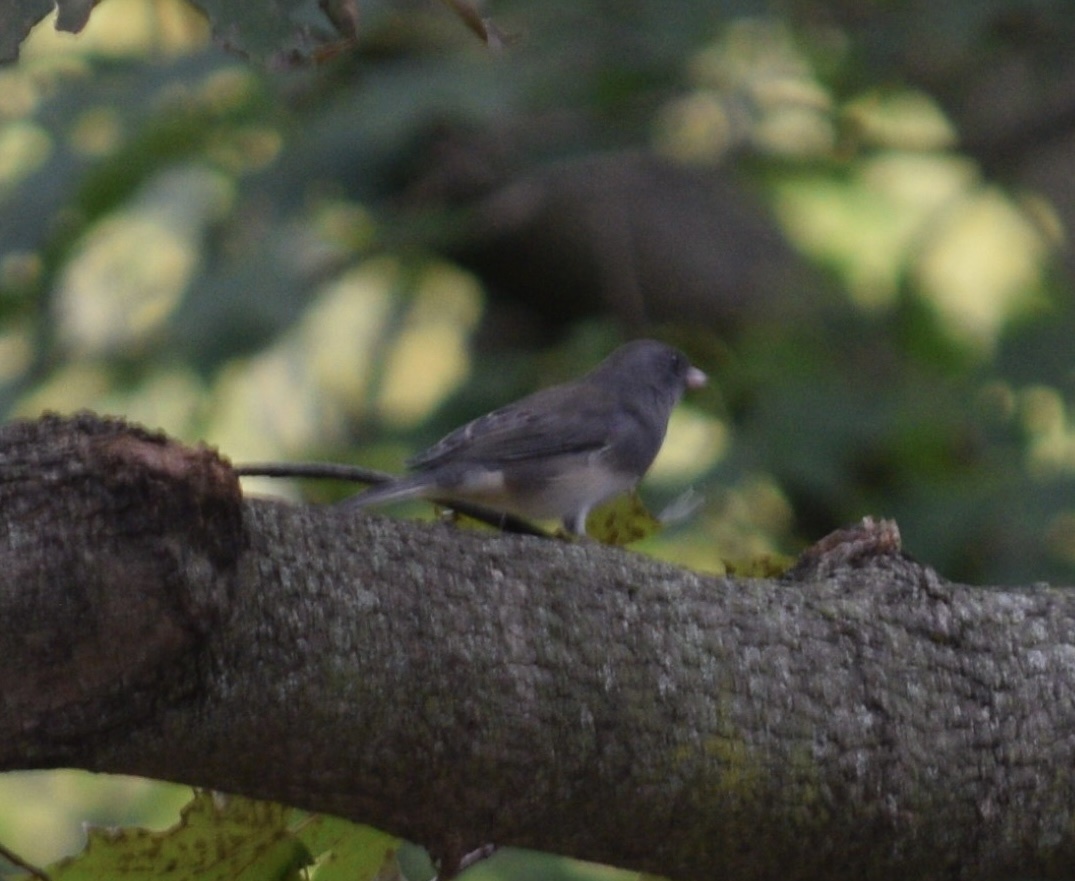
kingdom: Animalia
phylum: Chordata
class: Aves
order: Passeriformes
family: Passerellidae
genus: Junco
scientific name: Junco hyemalis
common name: Dark-eyed junco
